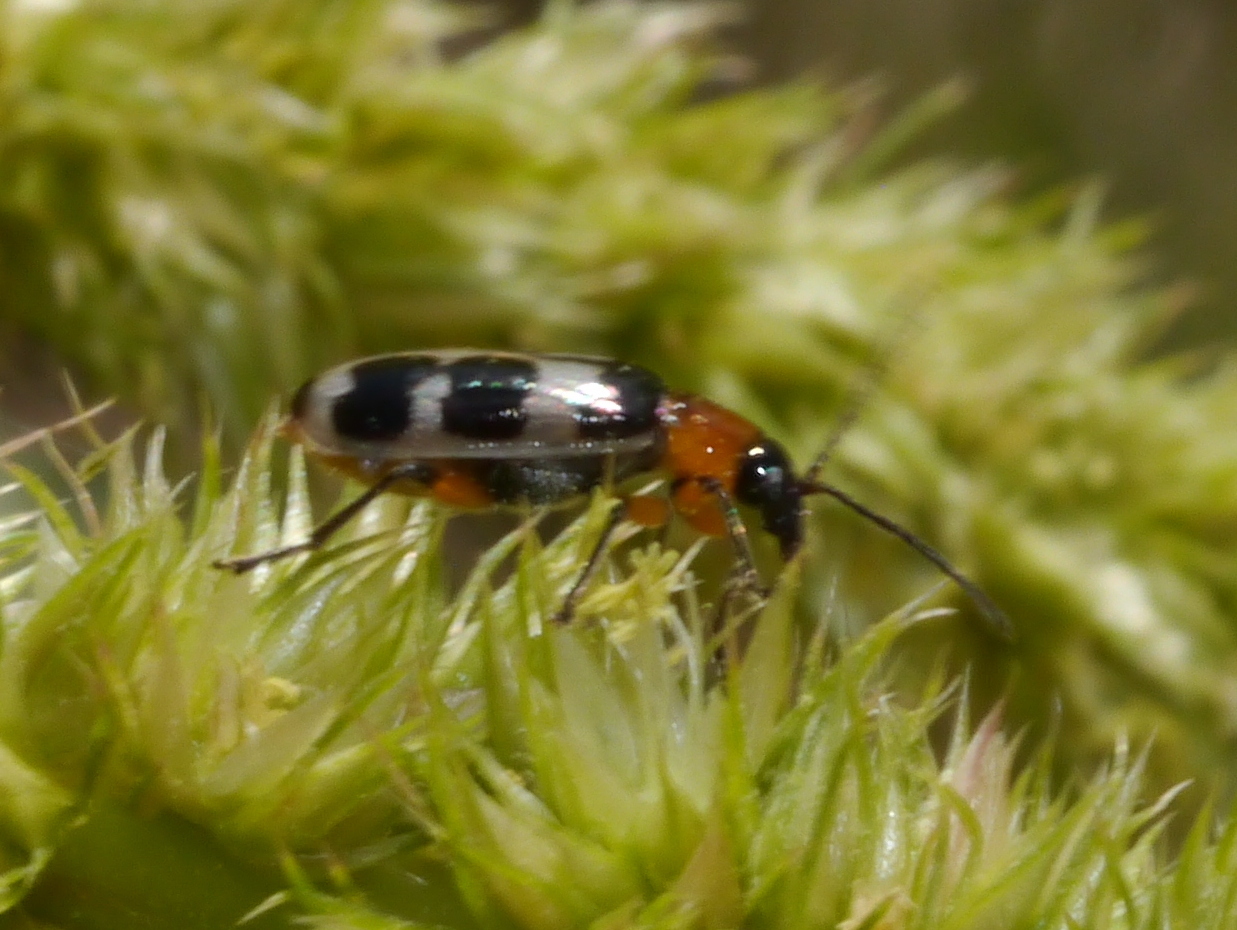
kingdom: Animalia
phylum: Arthropoda
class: Insecta
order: Coleoptera
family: Chrysomelidae
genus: Paranapiacaba
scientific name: Paranapiacaba tricincta
